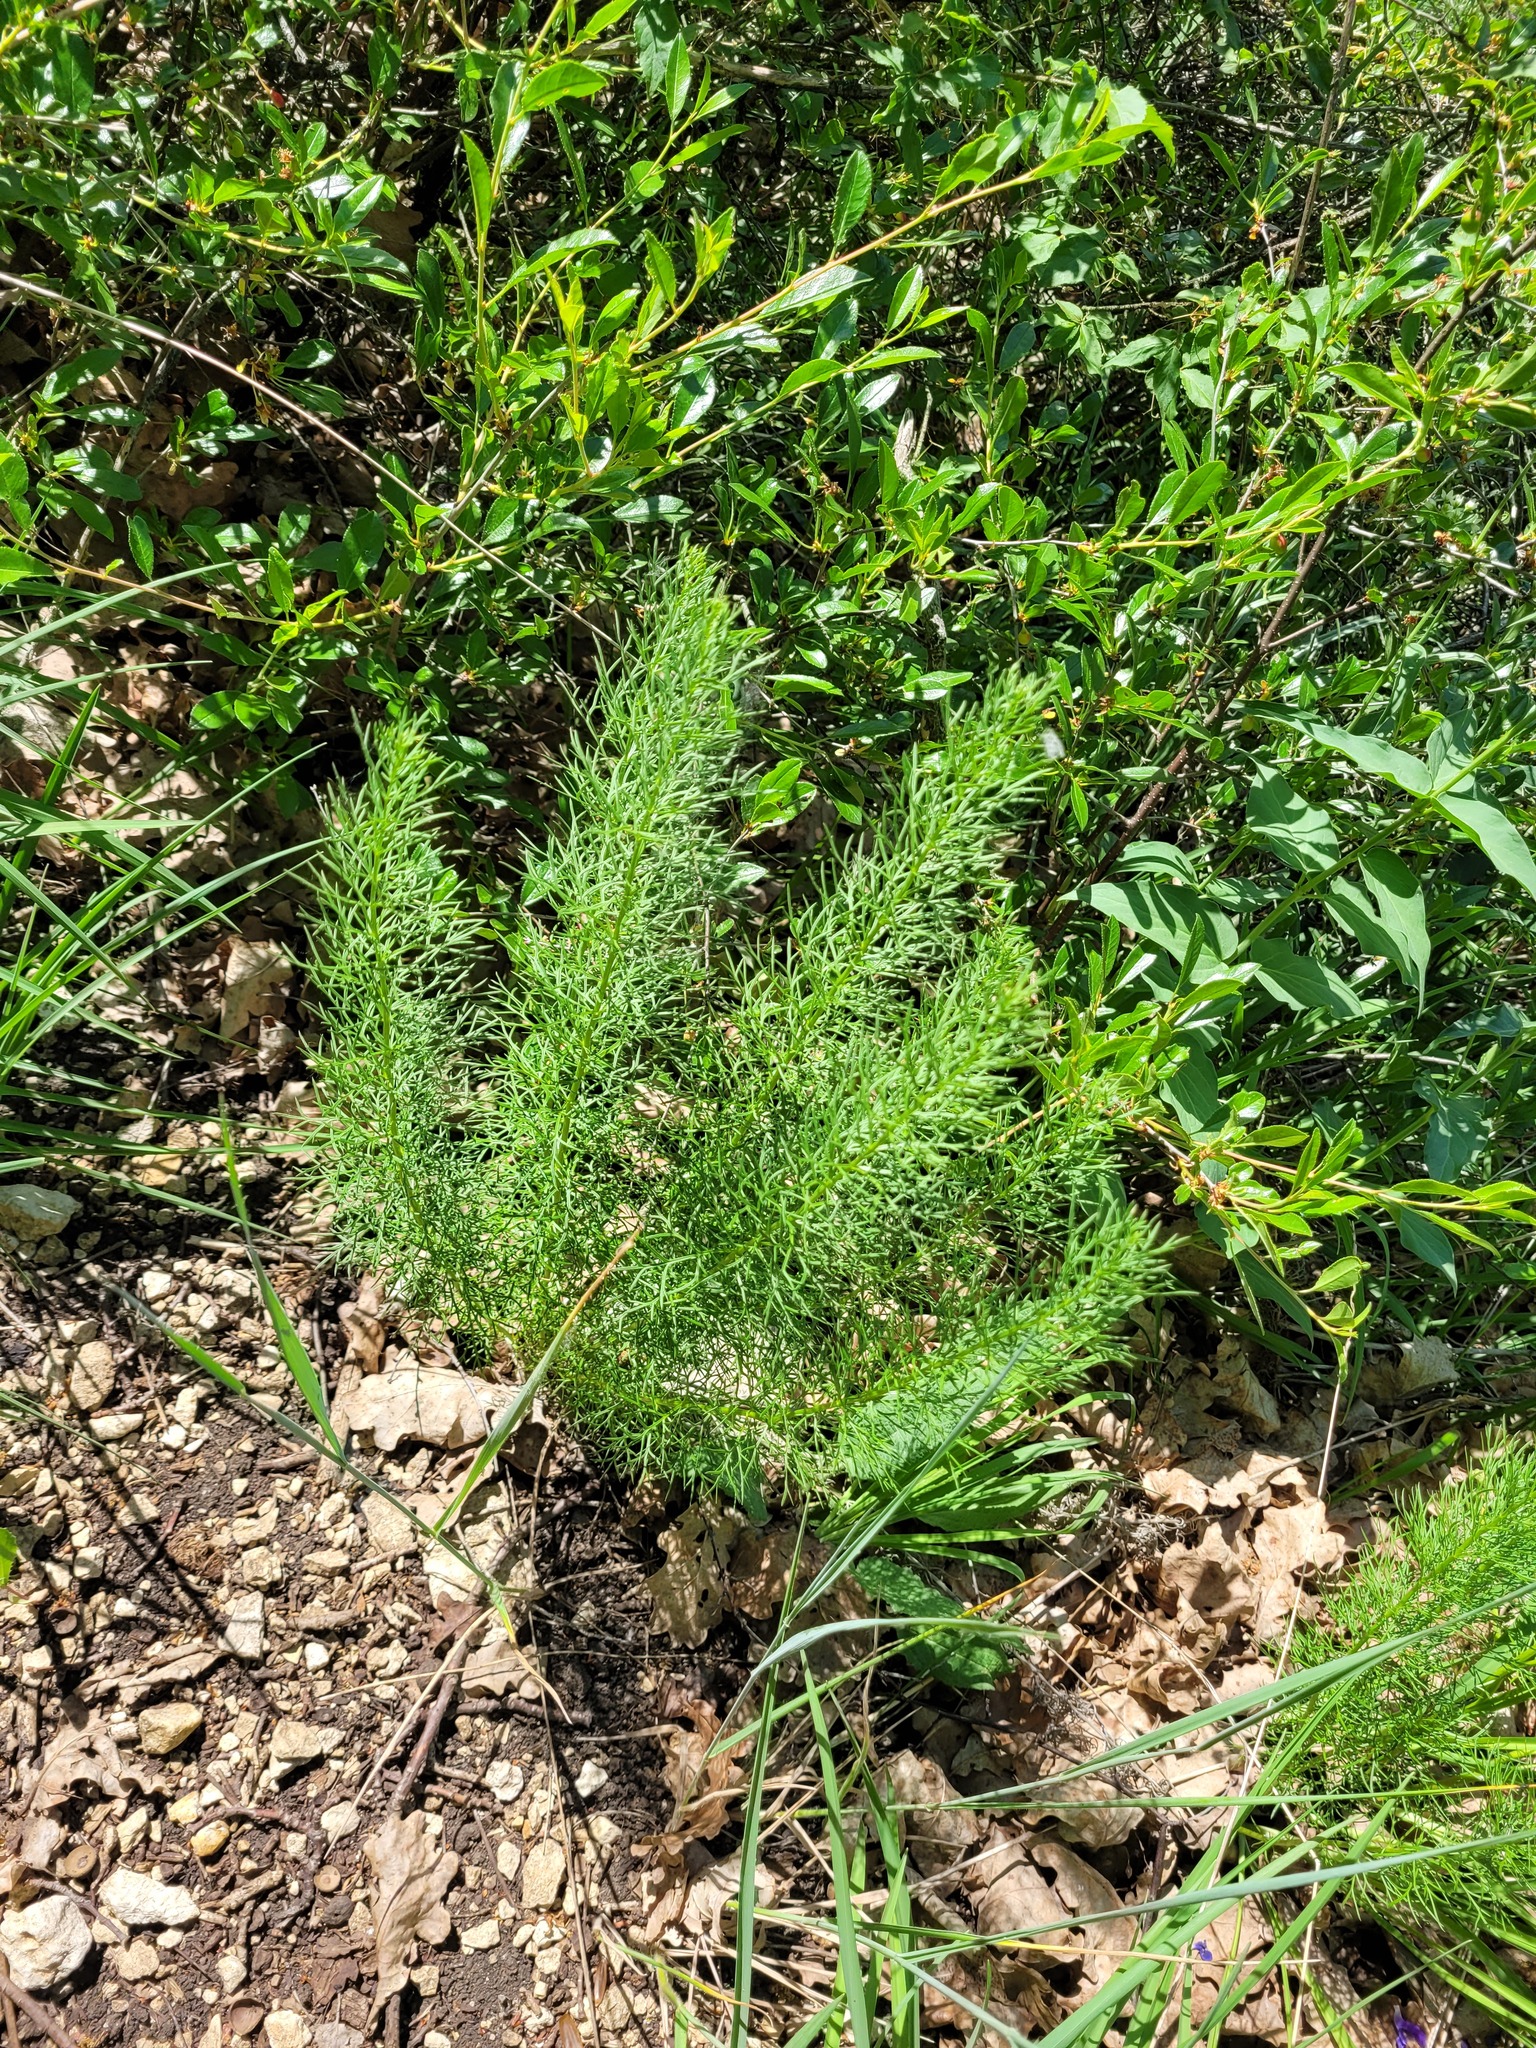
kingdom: Plantae
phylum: Tracheophyta
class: Magnoliopsida
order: Ranunculales
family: Ranunculaceae
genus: Adonis
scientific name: Adonis vernalis
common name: Yellow pheasants-eye
